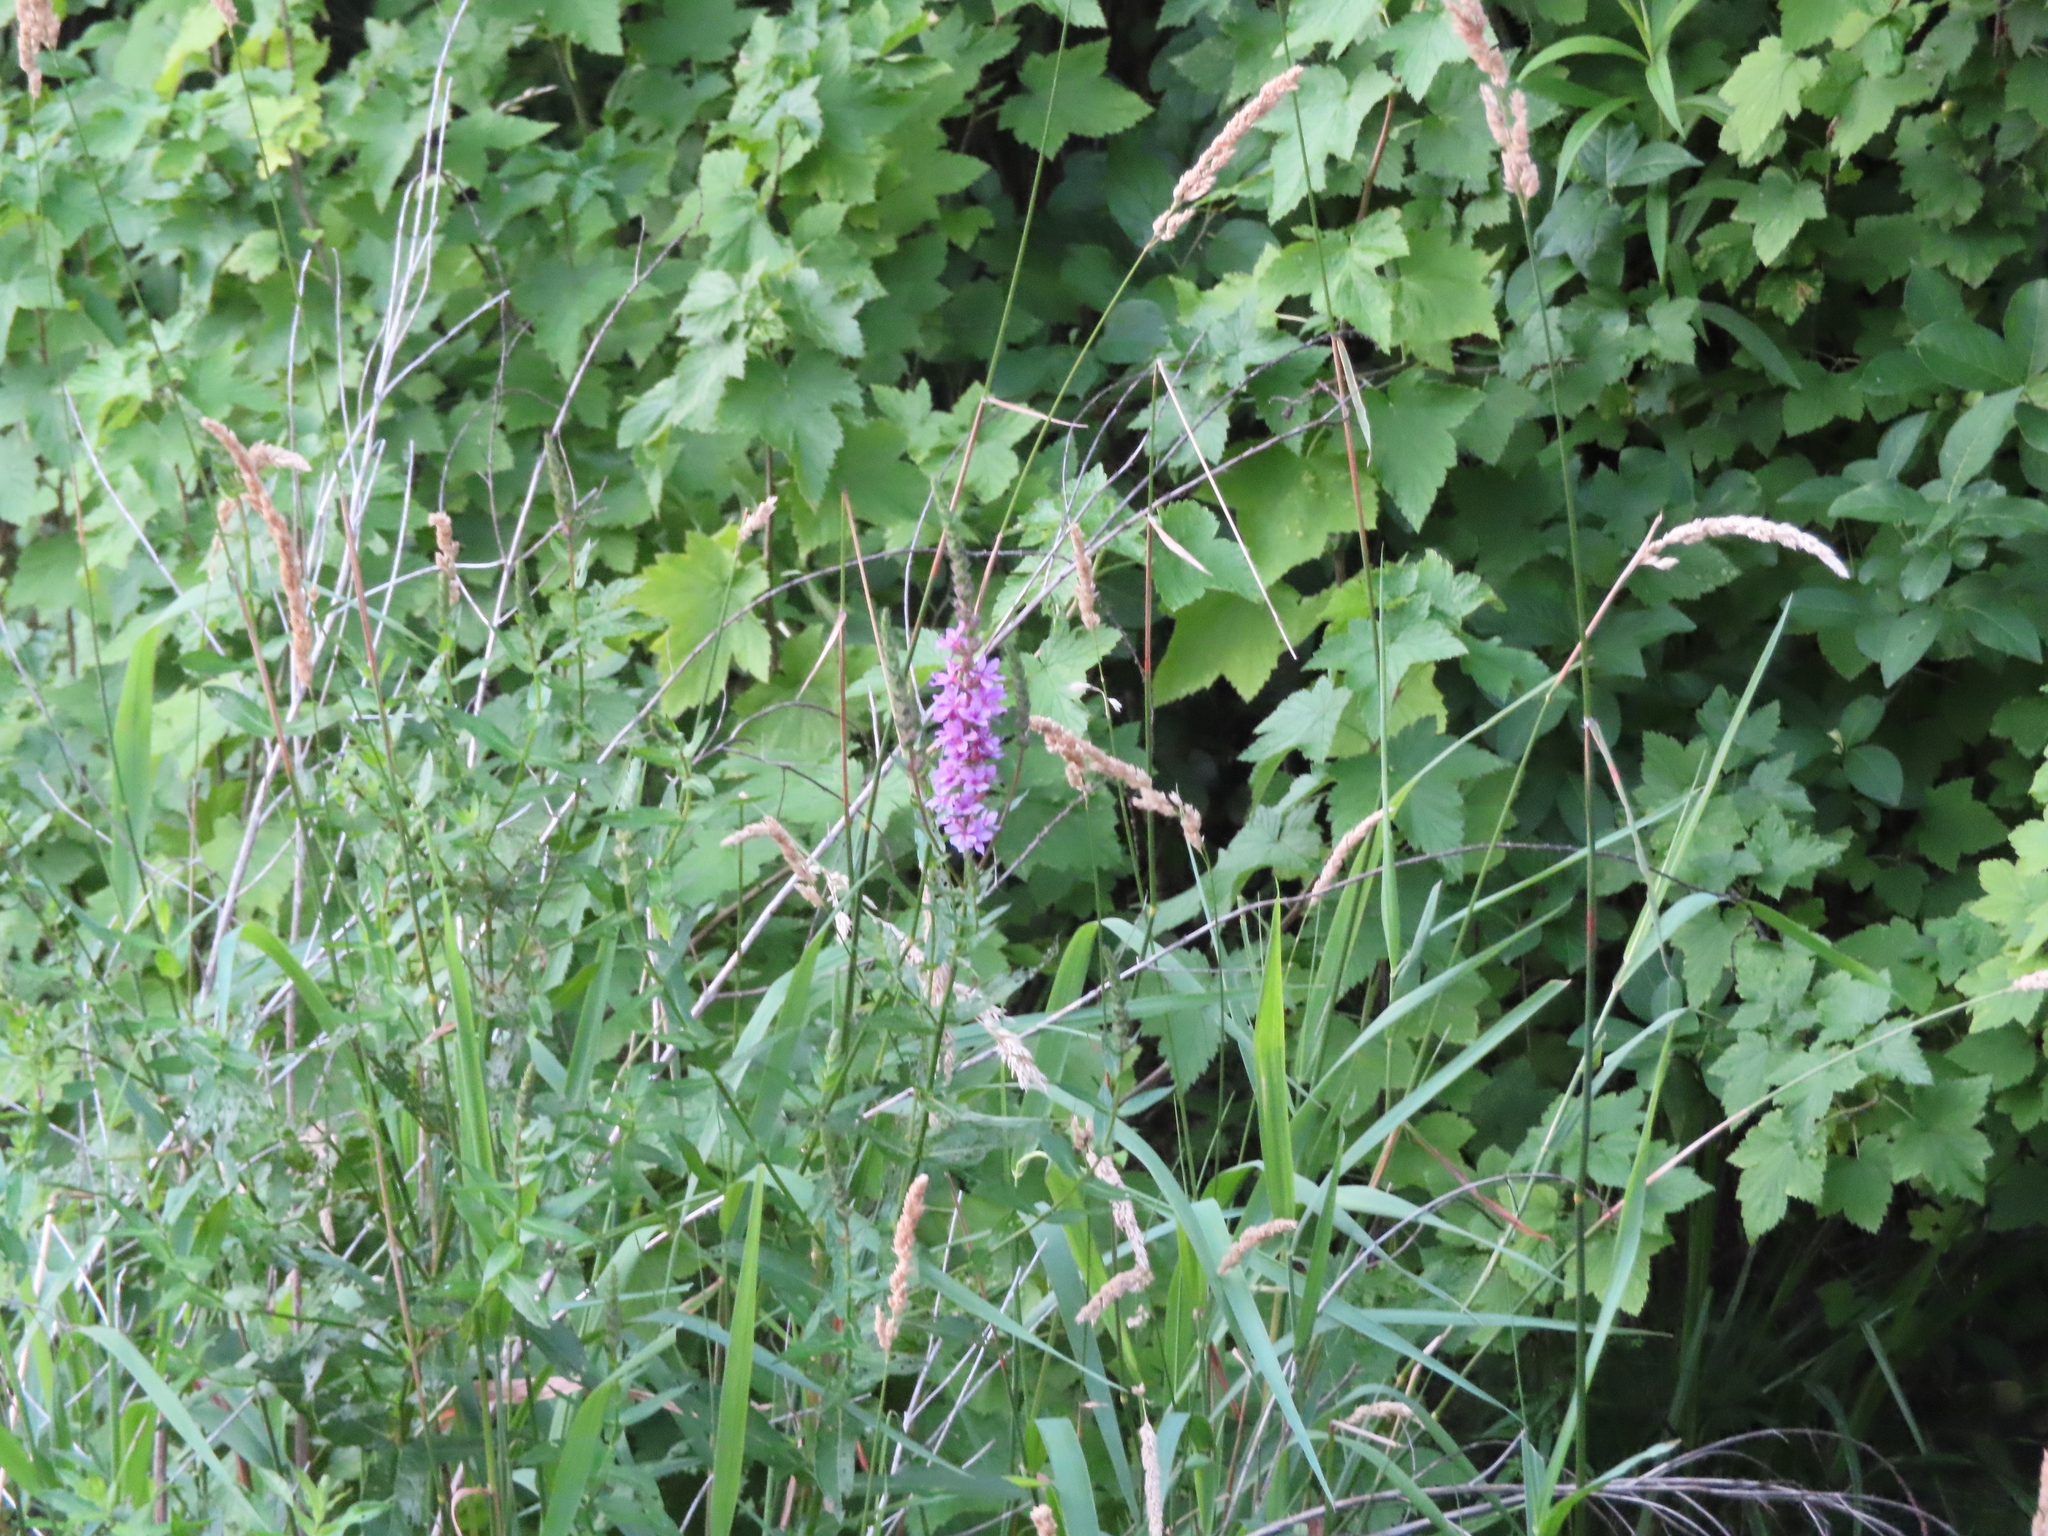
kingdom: Plantae
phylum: Tracheophyta
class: Magnoliopsida
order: Myrtales
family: Lythraceae
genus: Lythrum
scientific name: Lythrum salicaria
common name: Purple loosestrife
